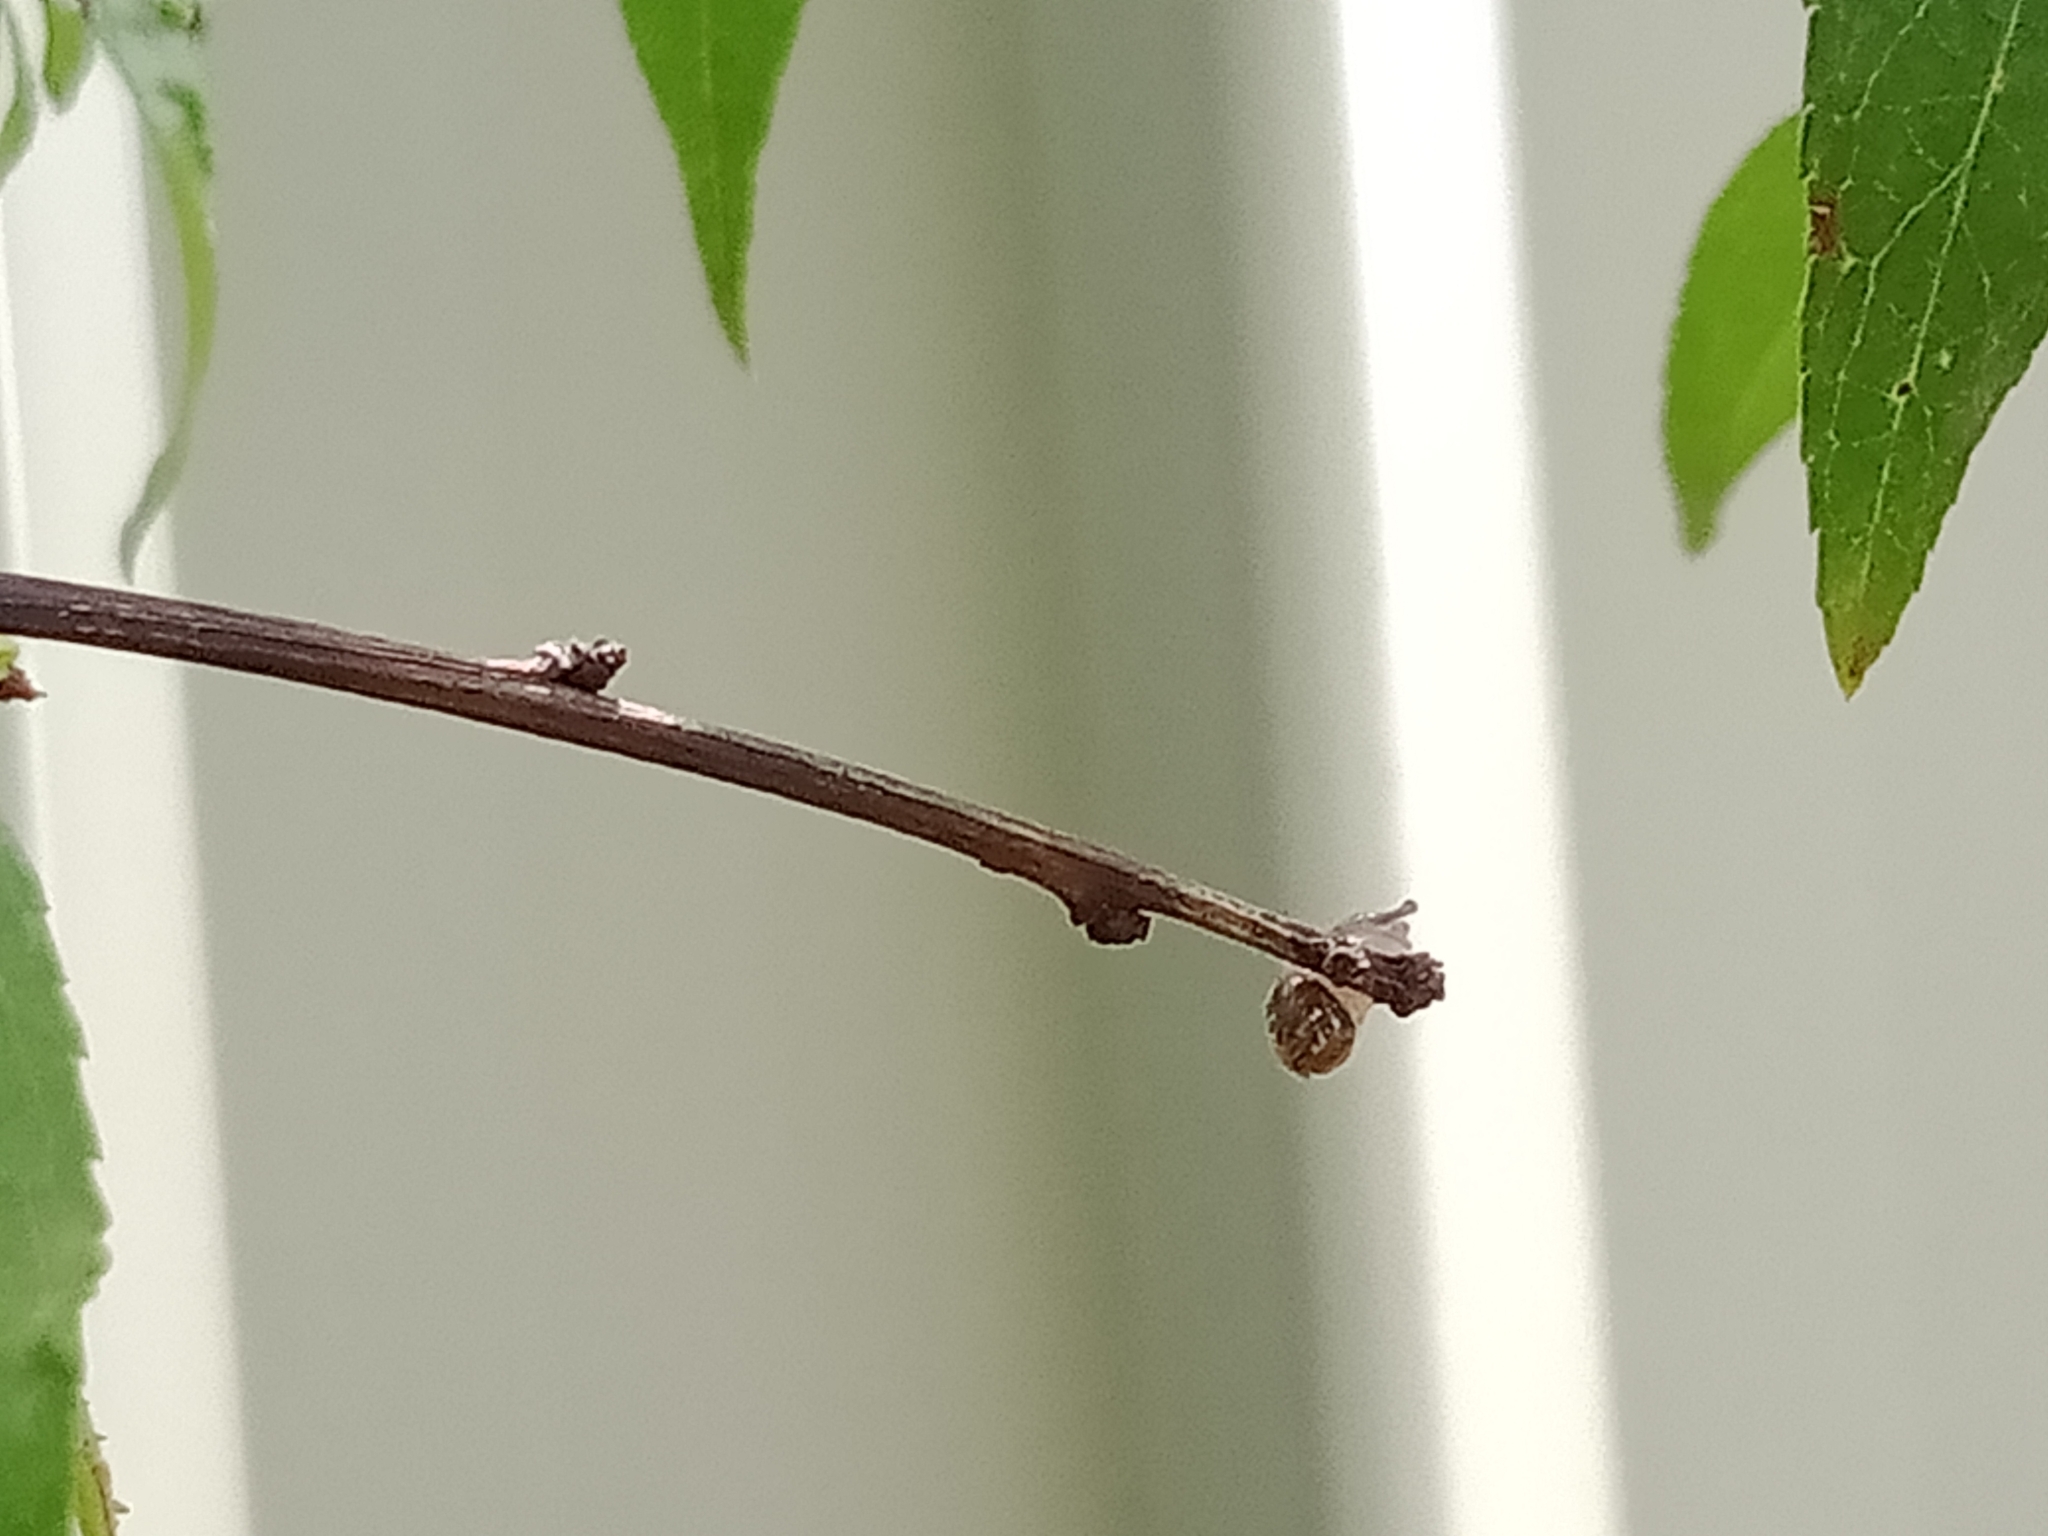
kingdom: Animalia
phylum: Mollusca
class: Gastropoda
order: Stylommatophora
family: Helicidae
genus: Cornu
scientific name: Cornu aspersum
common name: Brown garden snail
